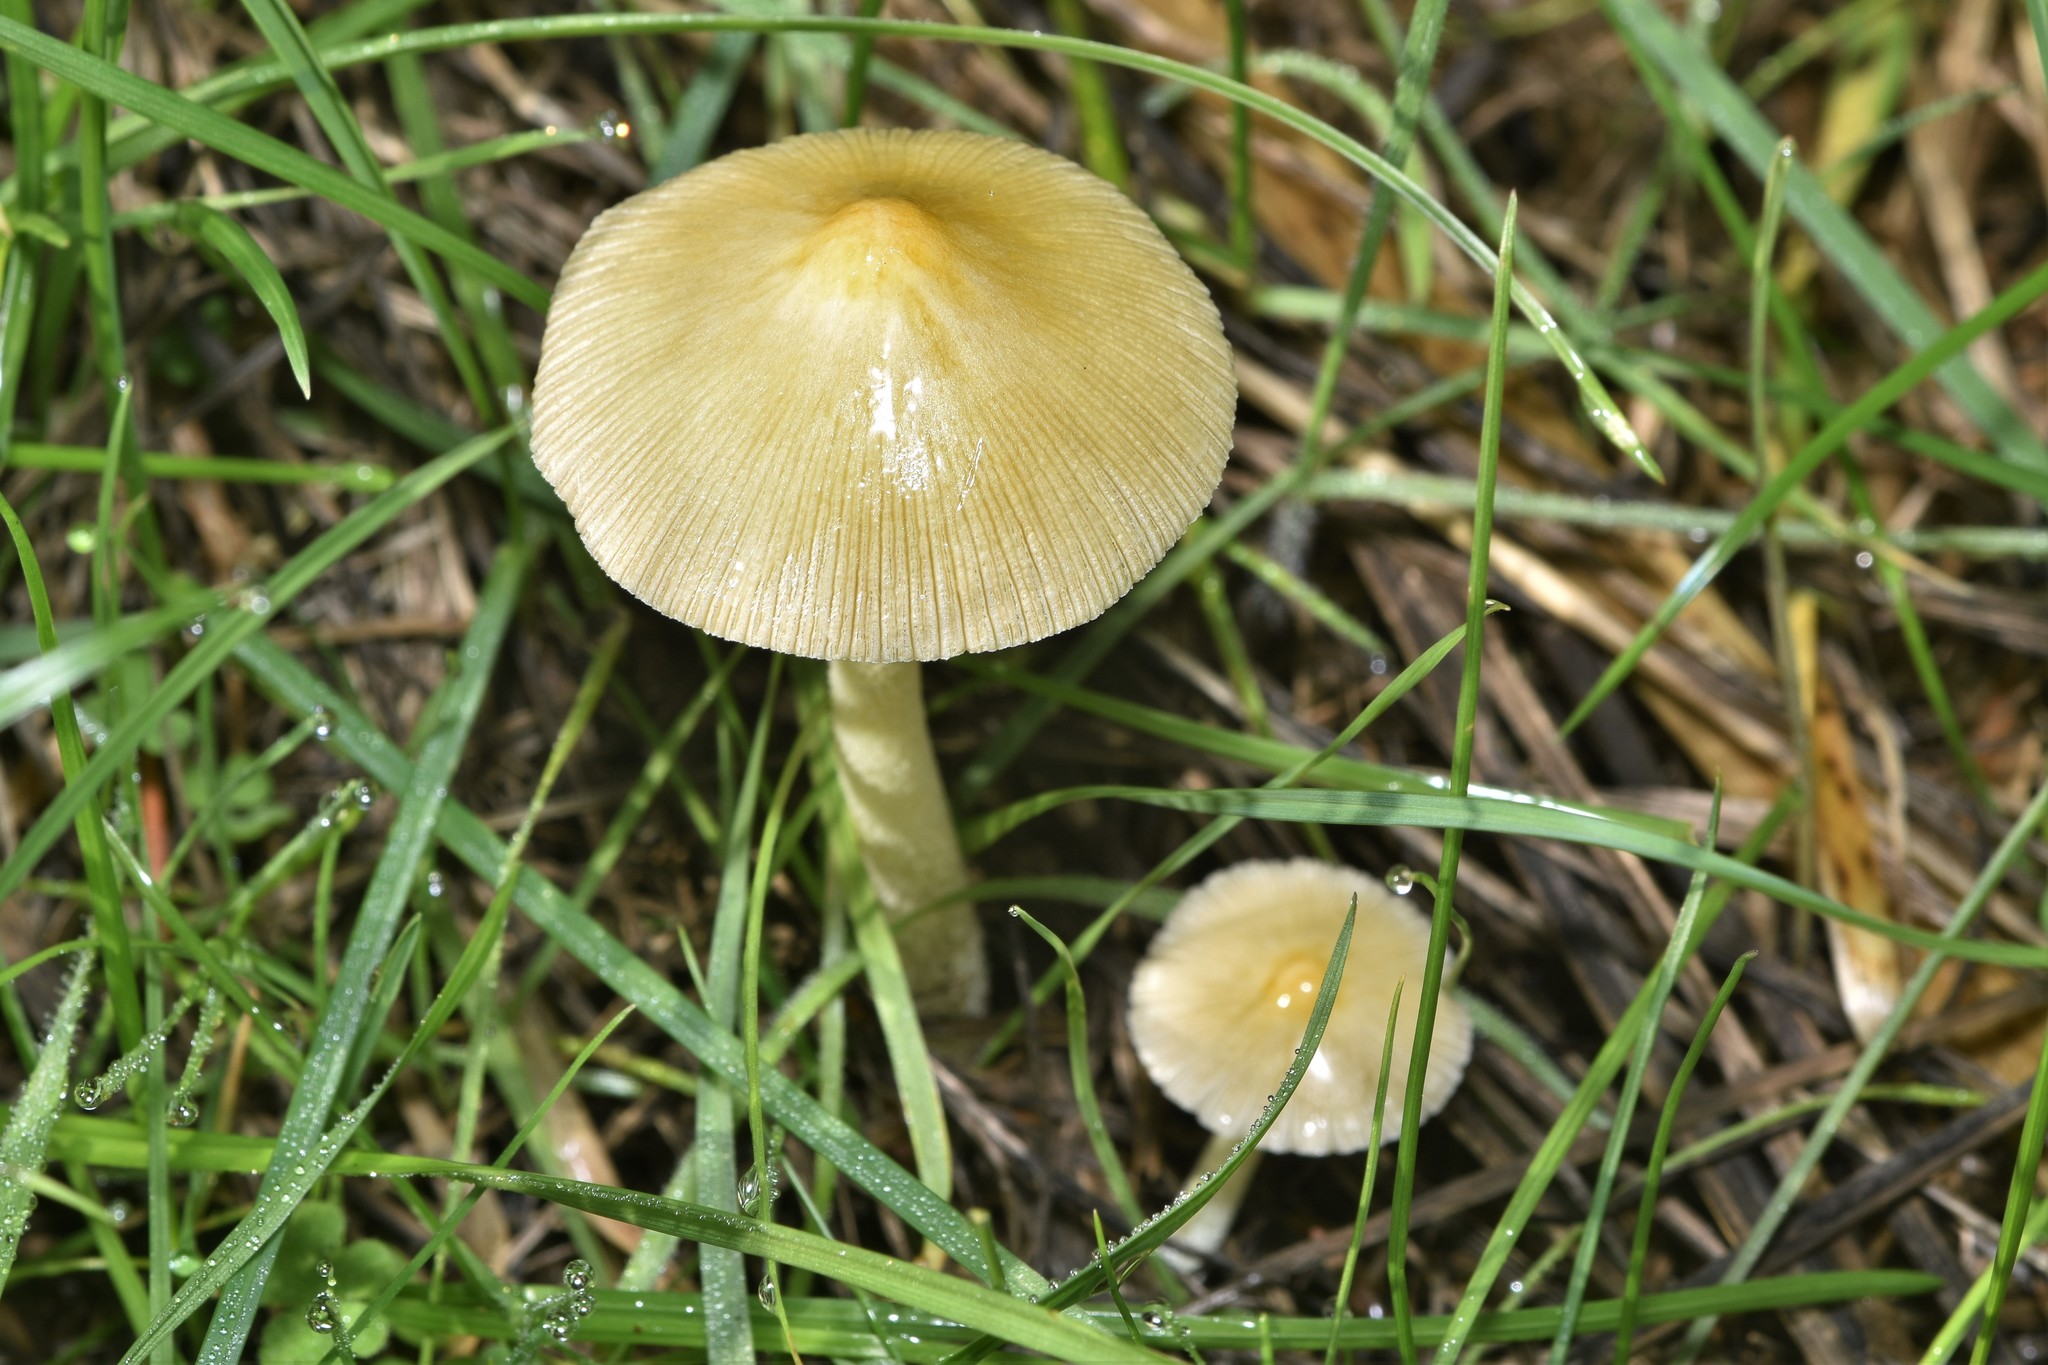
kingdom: Fungi
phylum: Basidiomycota
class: Agaricomycetes
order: Agaricales
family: Bolbitiaceae
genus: Bolbitius
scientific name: Bolbitius titubans
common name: Yellow fieldcap
